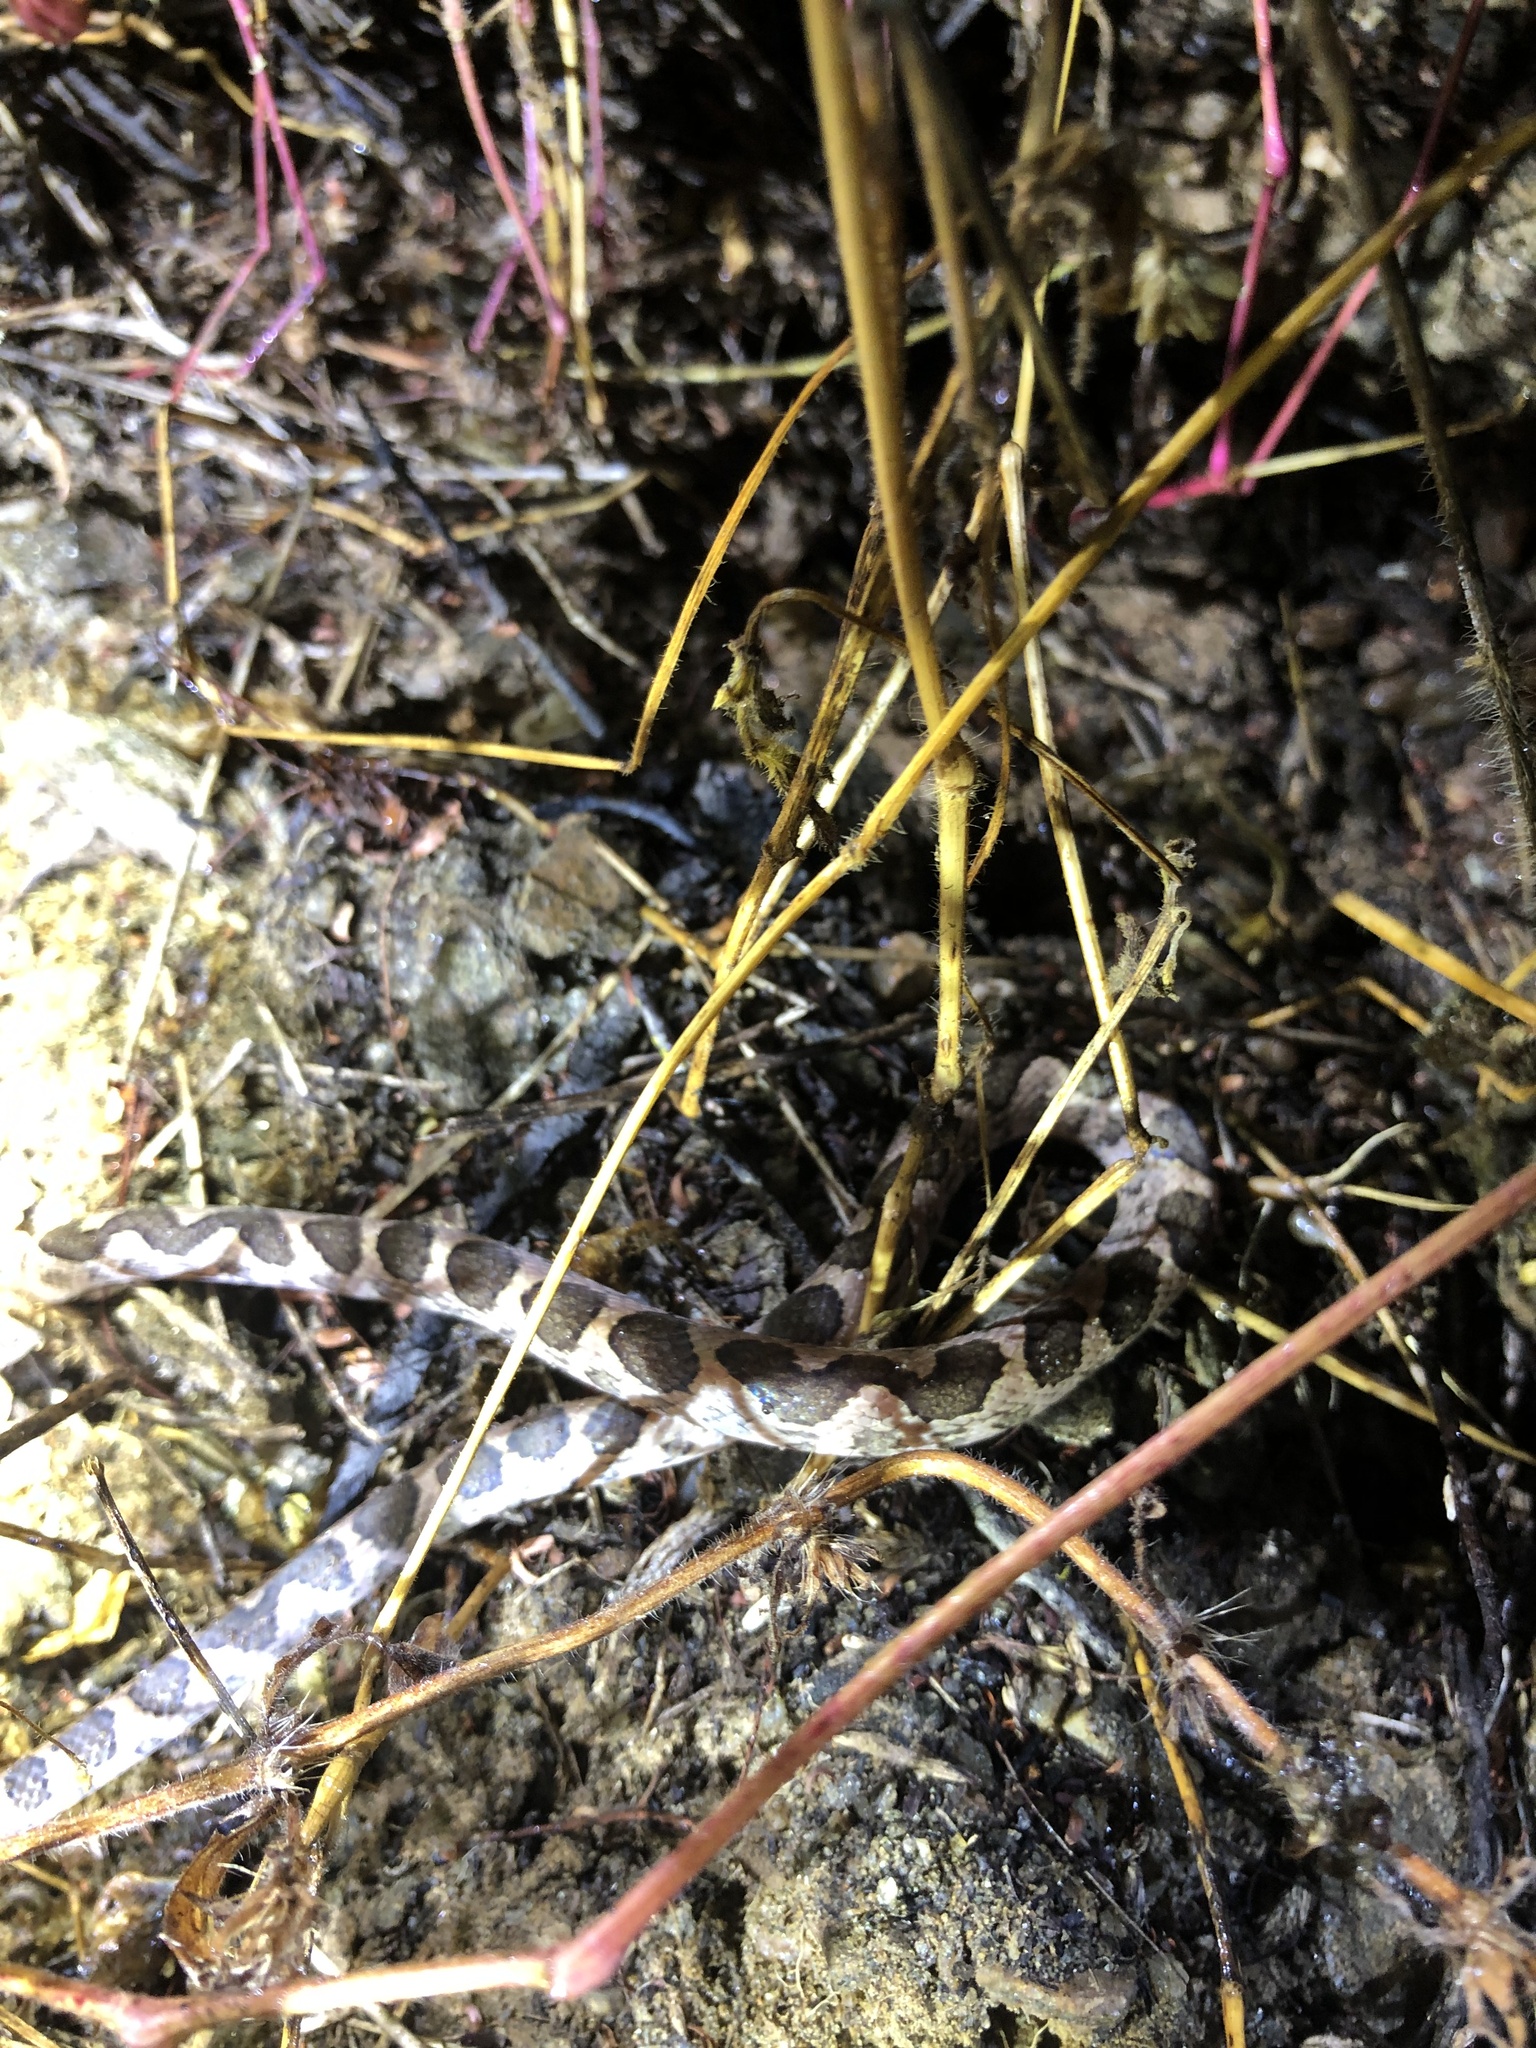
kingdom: Animalia
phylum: Chordata
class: Squamata
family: Colubridae
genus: Leptodeira
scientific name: Leptodeira
